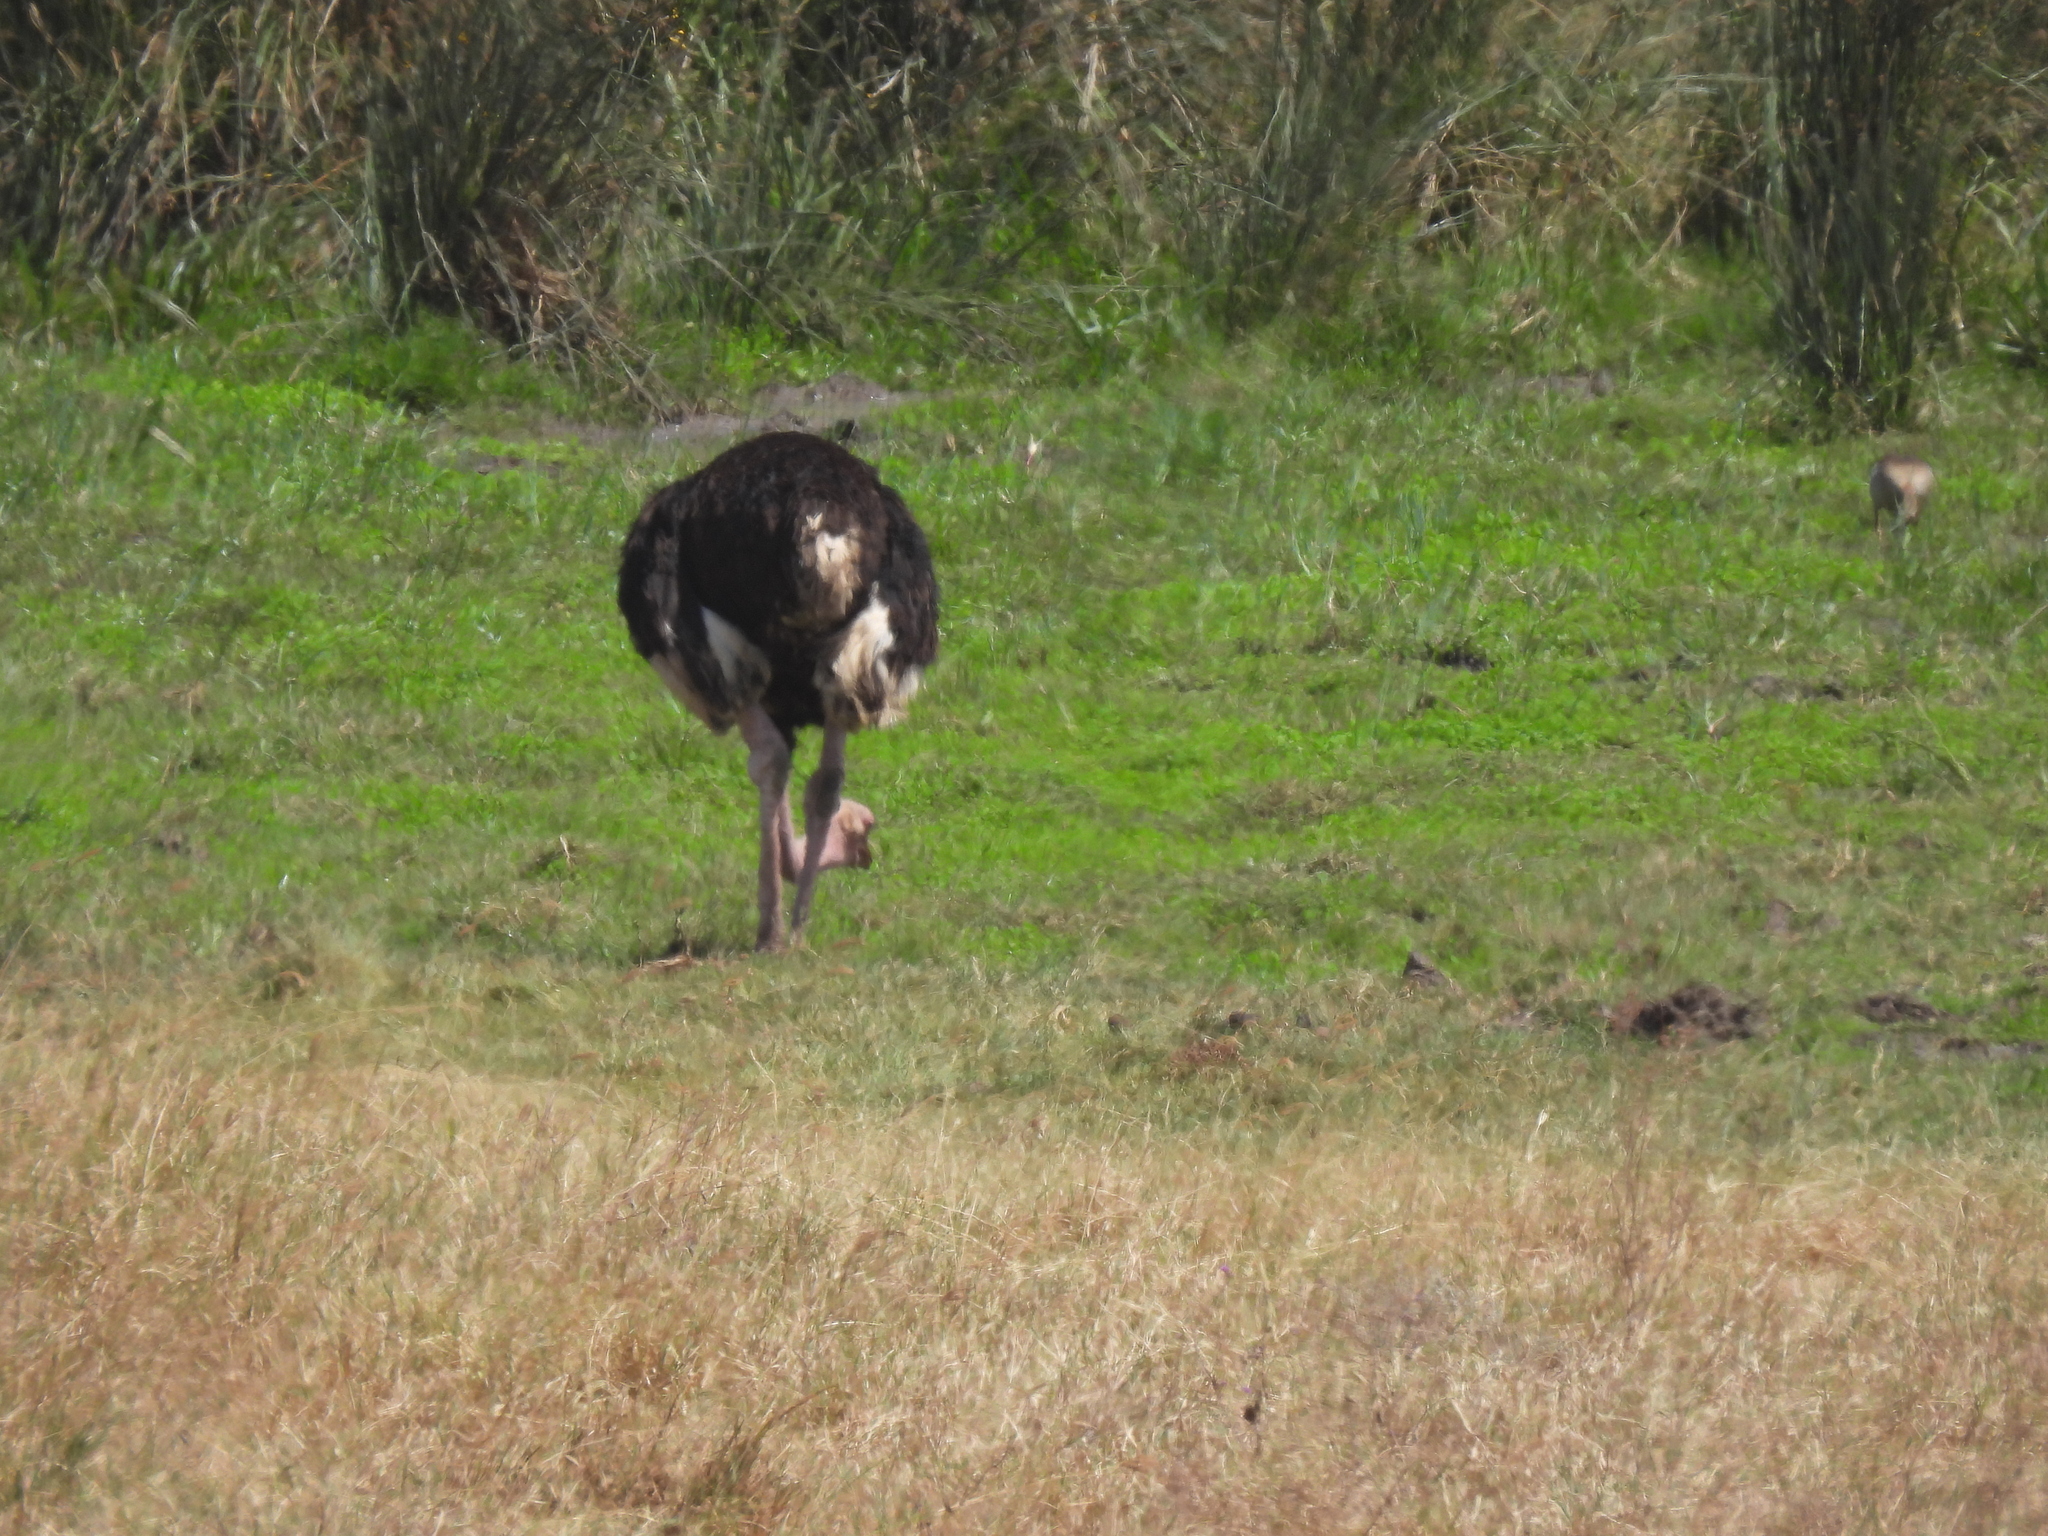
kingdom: Animalia
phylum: Chordata
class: Aves
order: Struthioniformes
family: Struthionidae
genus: Struthio
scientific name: Struthio camelus
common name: Common ostrich
